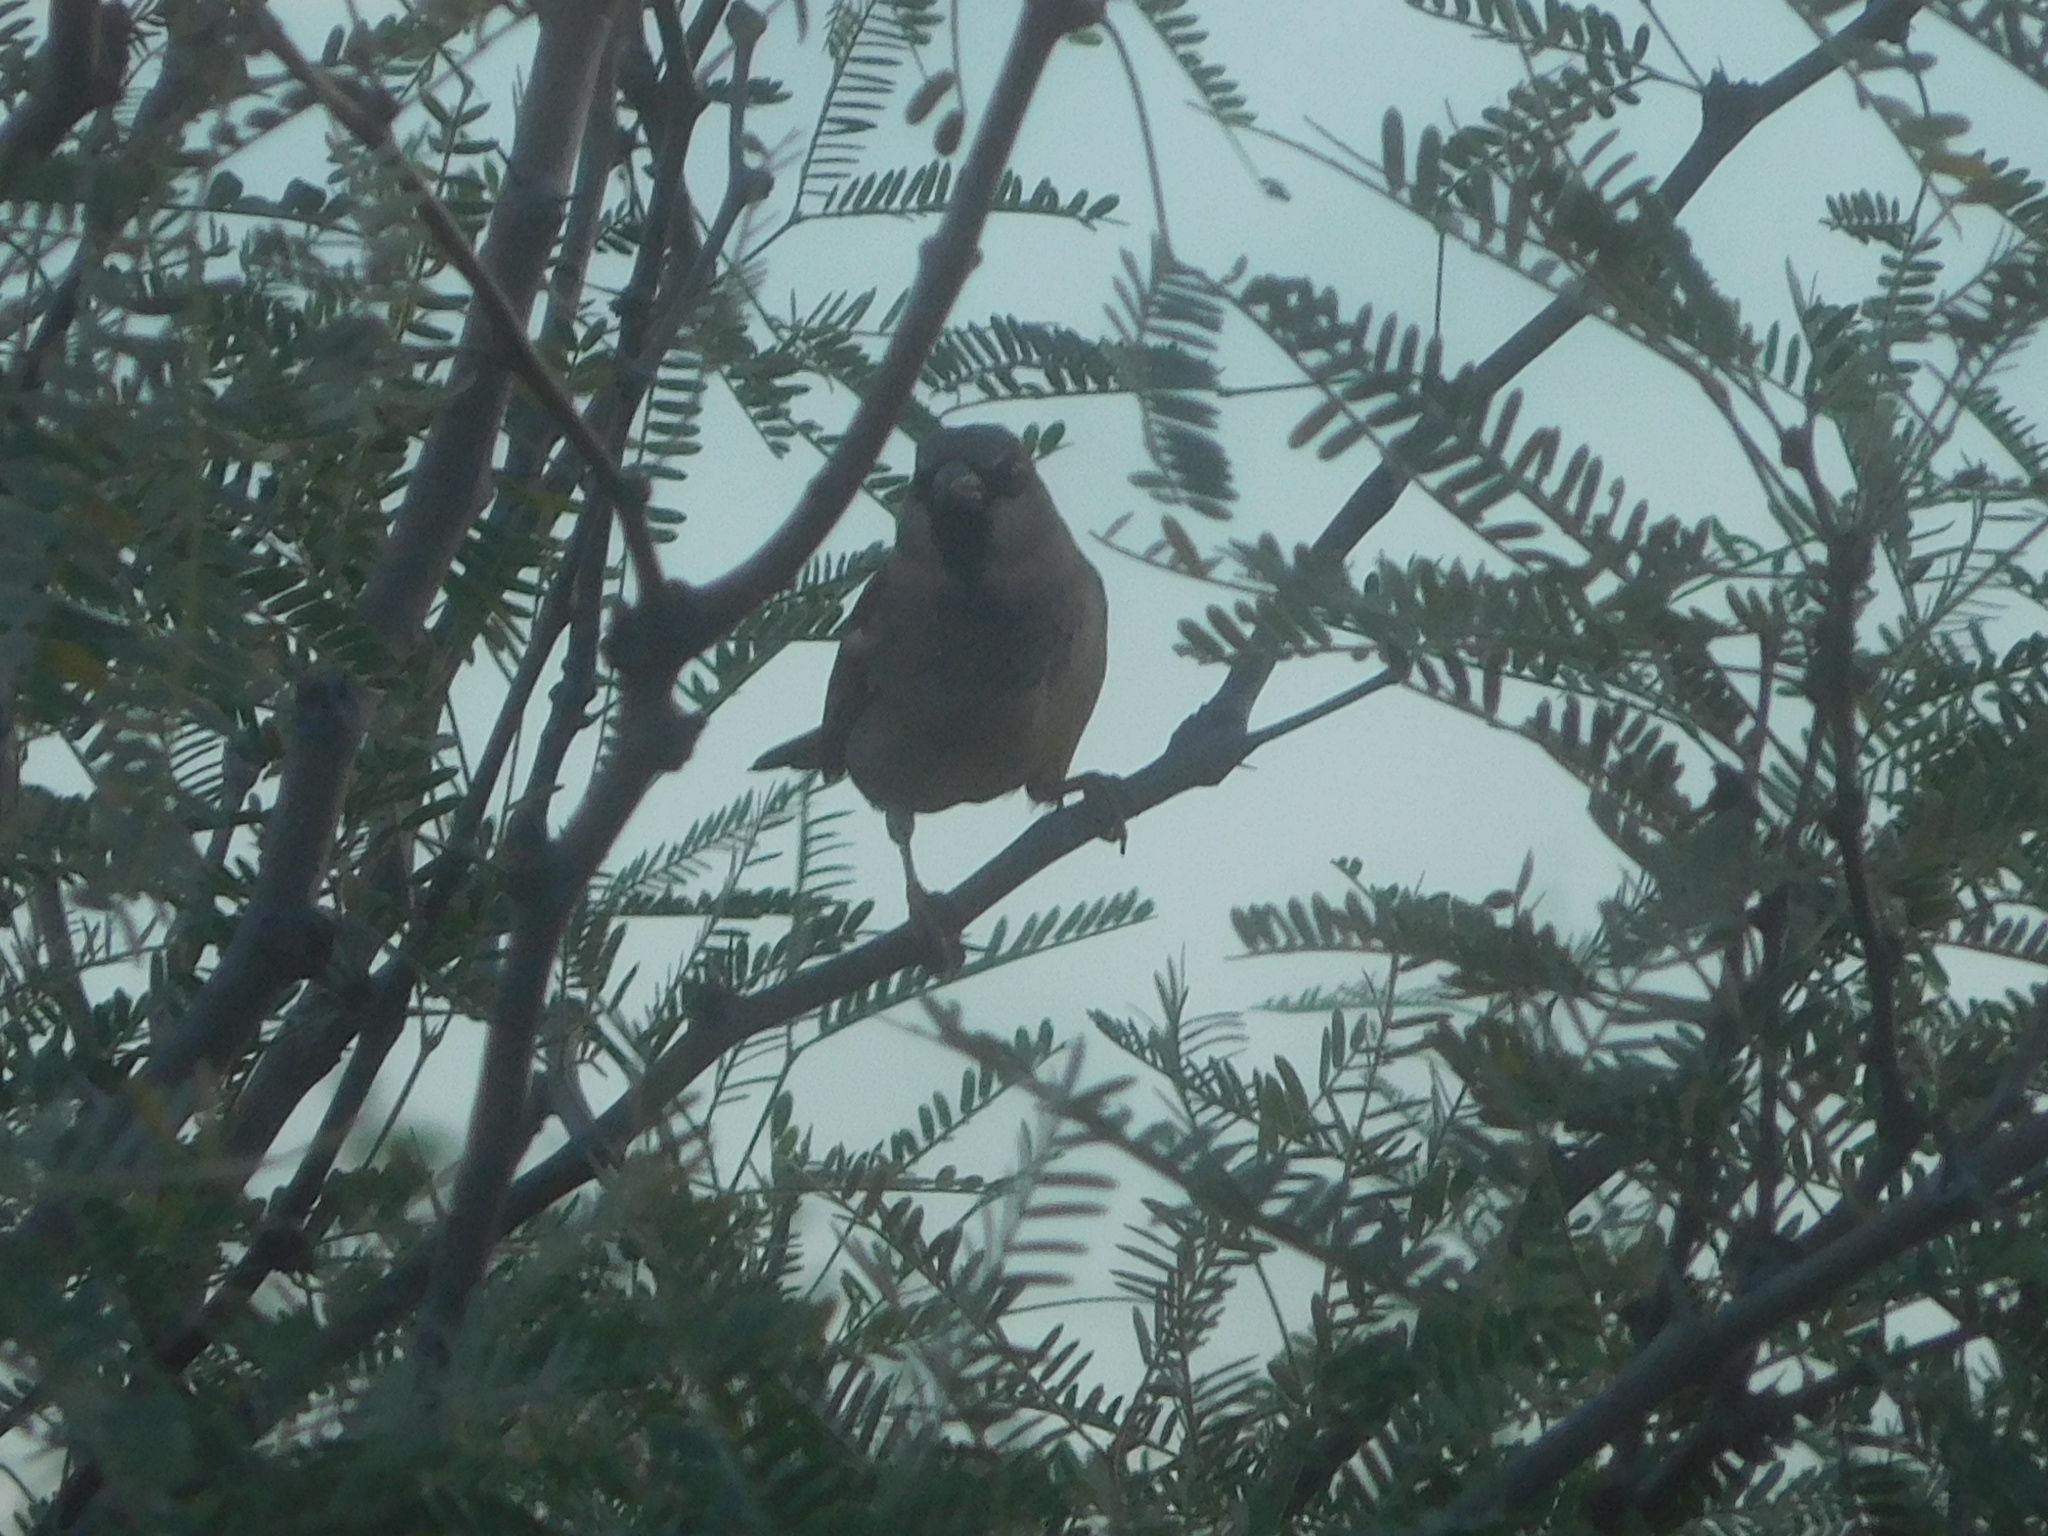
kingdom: Animalia
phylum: Chordata
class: Aves
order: Passeriformes
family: Passeridae
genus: Passer
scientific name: Passer domesticus
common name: House sparrow
